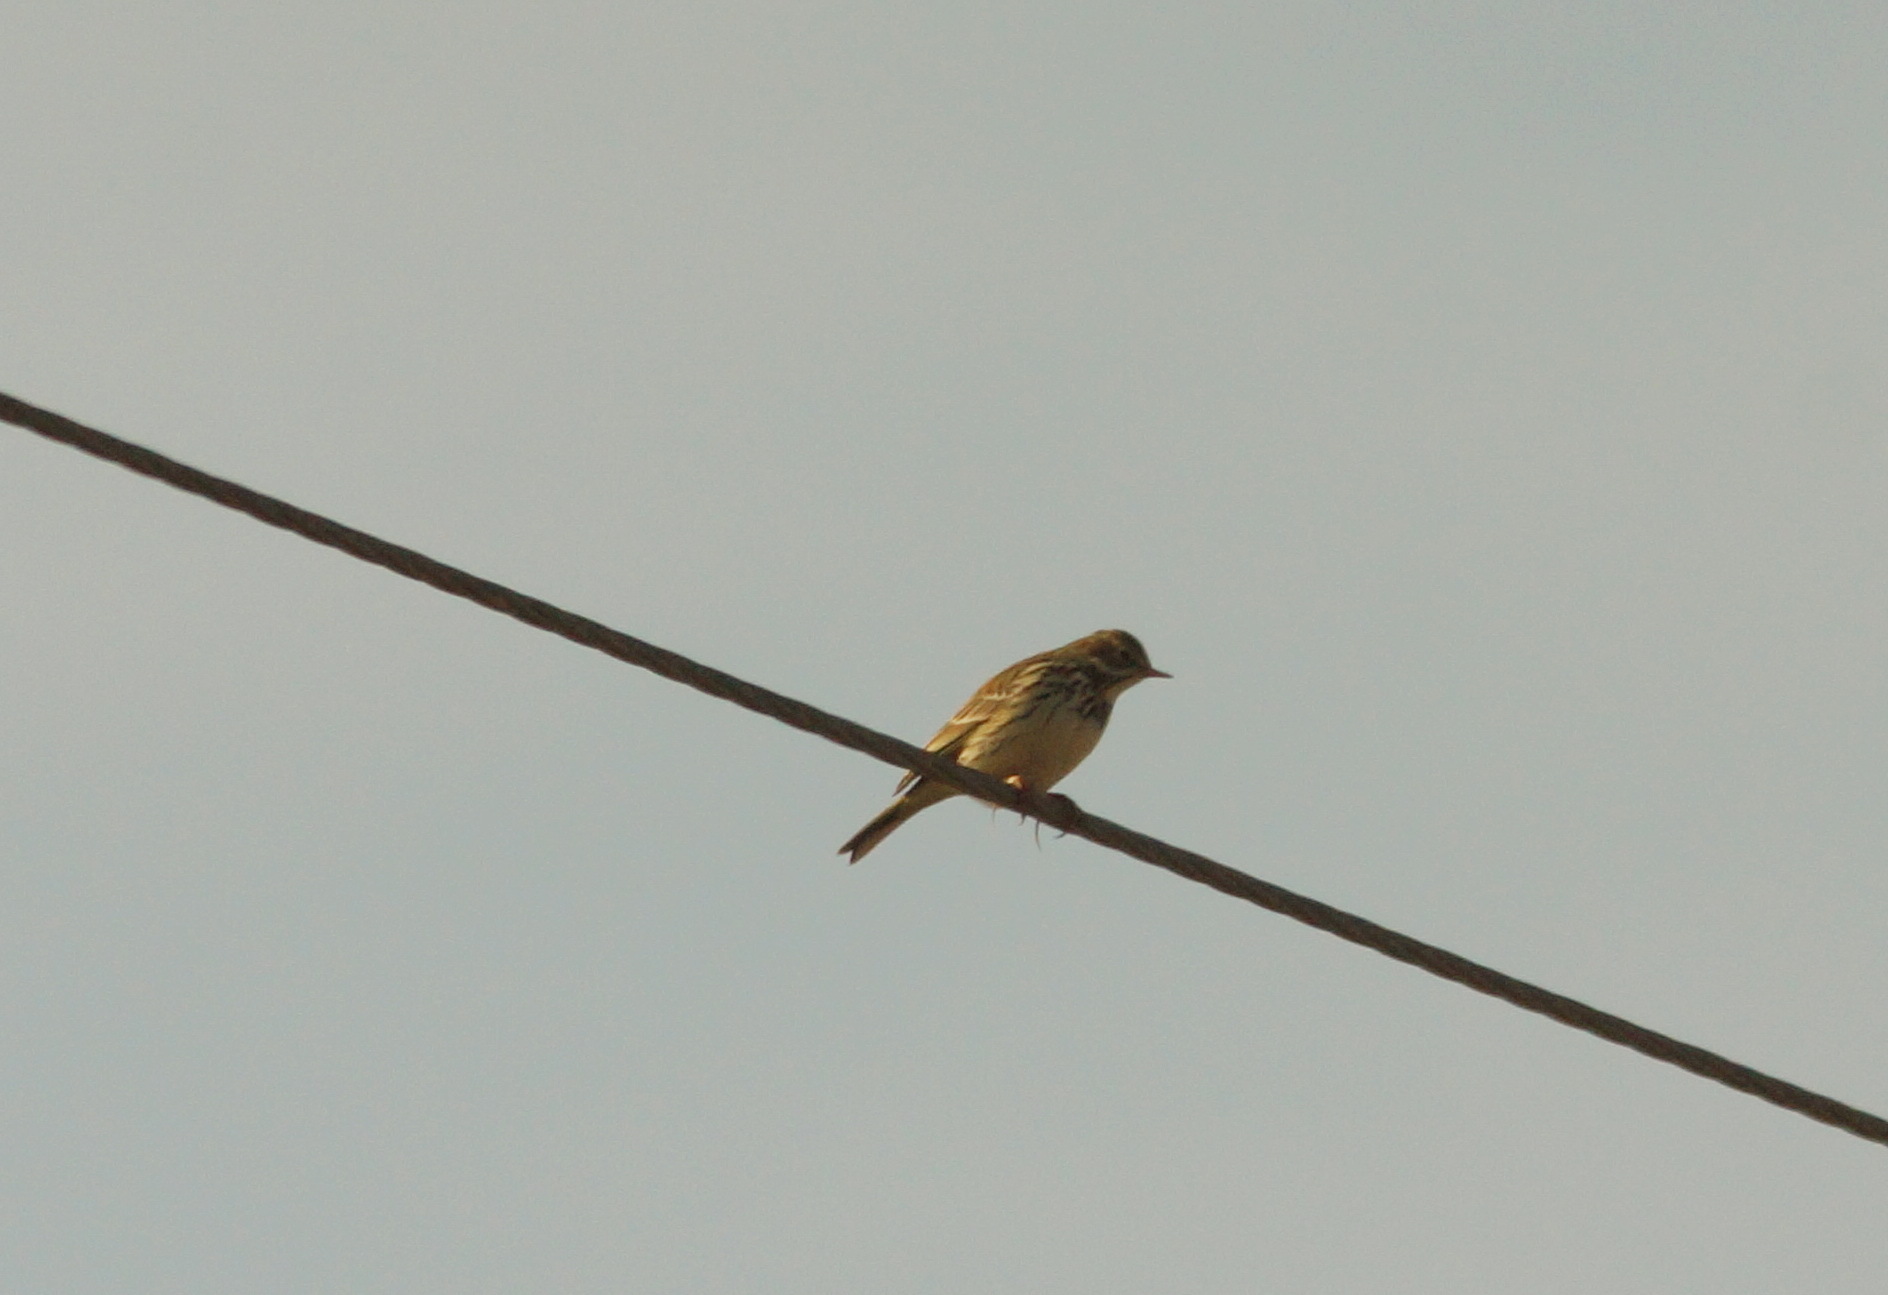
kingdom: Animalia
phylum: Chordata
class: Aves
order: Passeriformes
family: Motacillidae
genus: Anthus
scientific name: Anthus pratensis
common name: Meadow pipit
